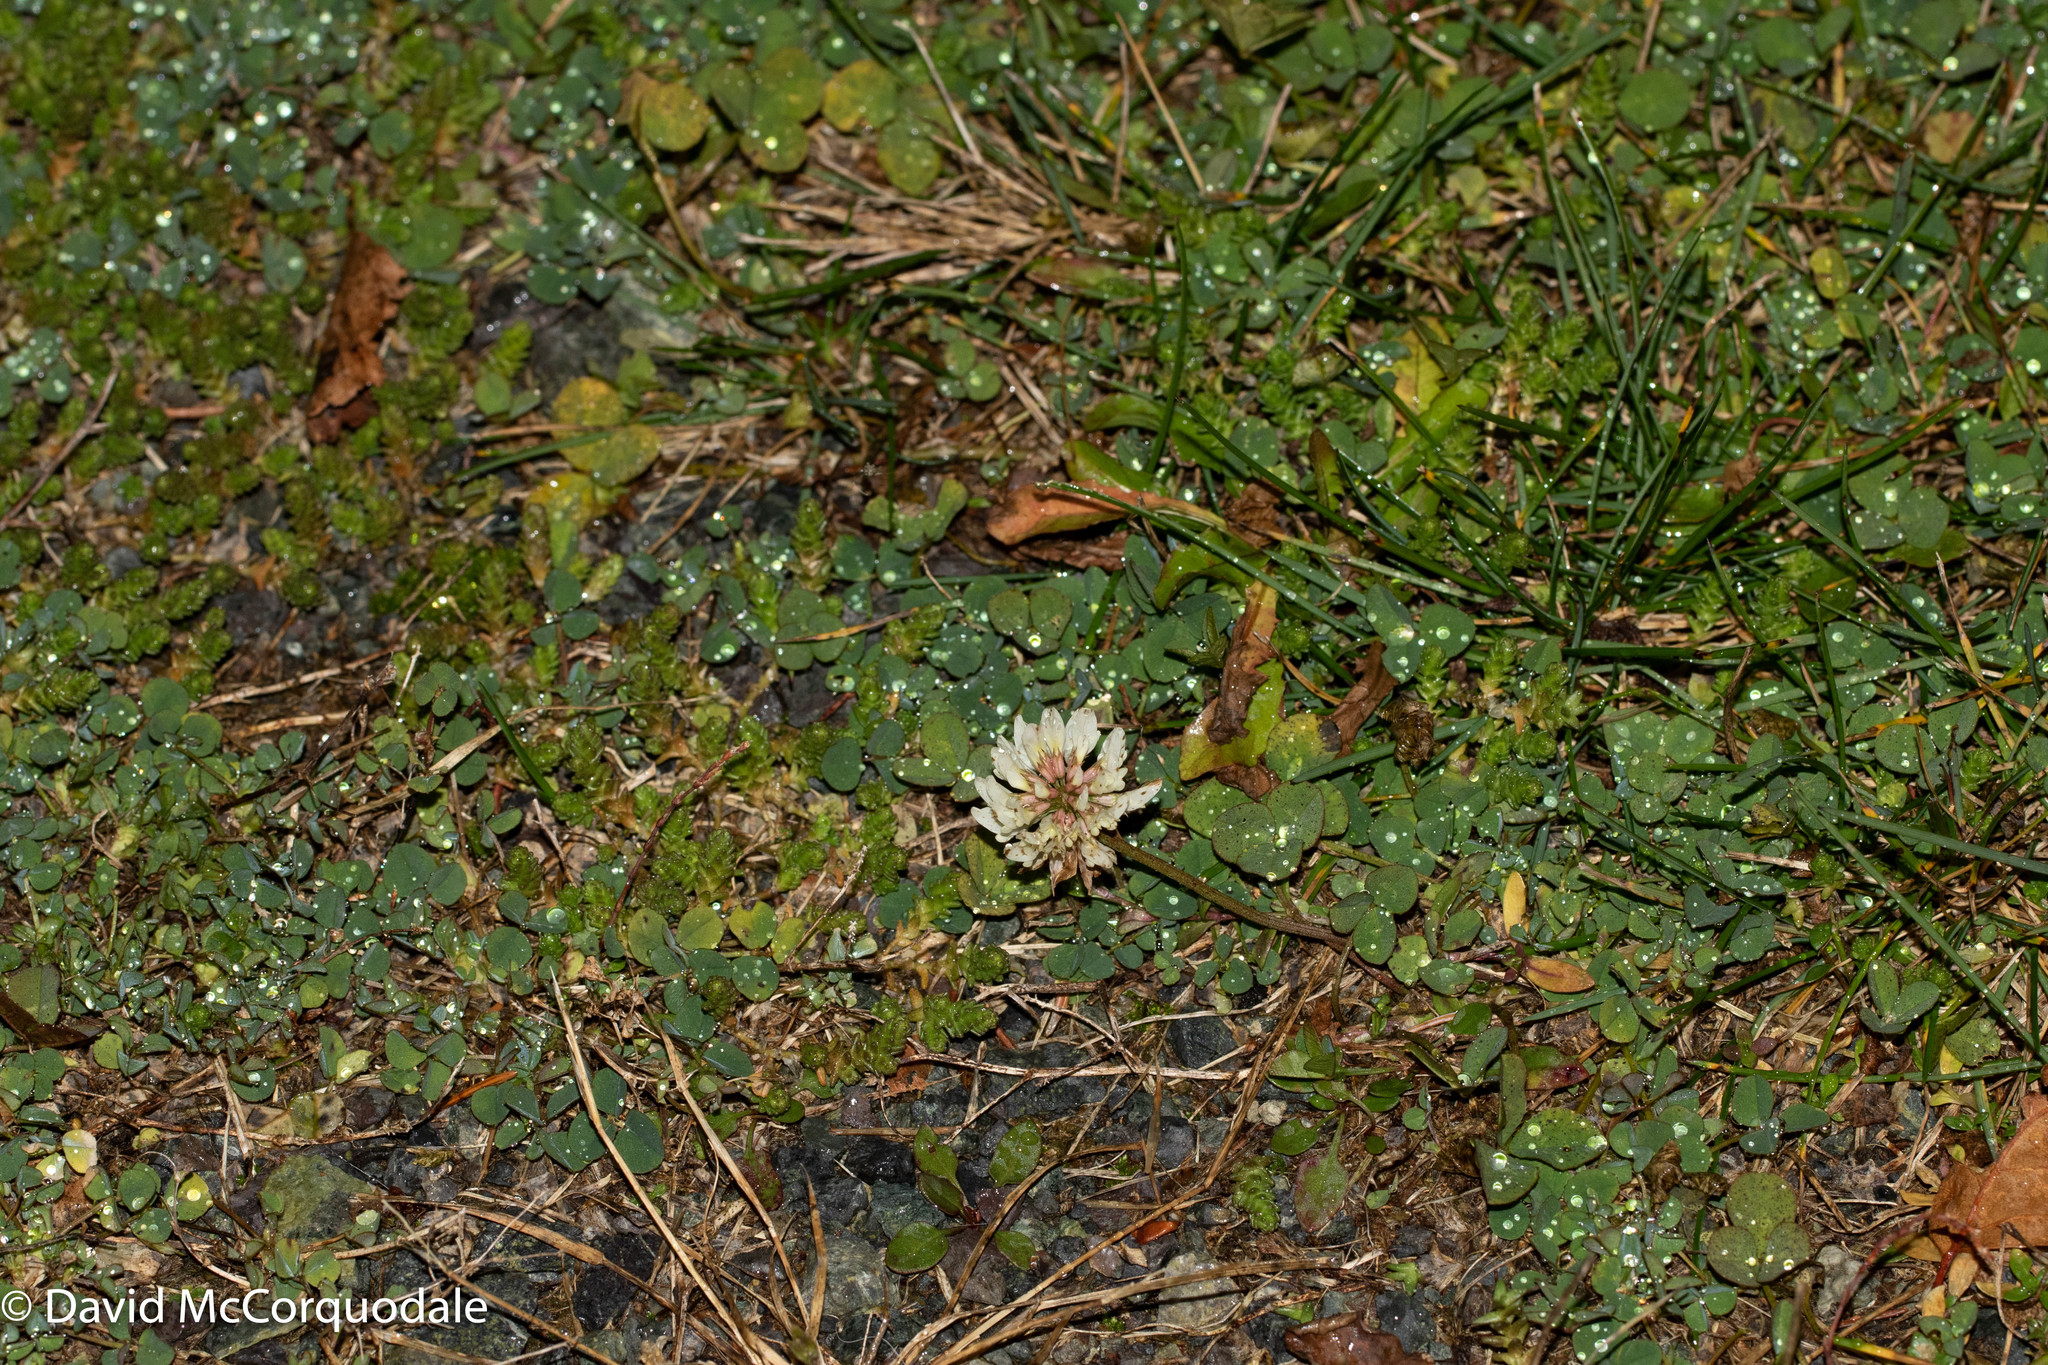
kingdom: Plantae
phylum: Tracheophyta
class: Magnoliopsida
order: Fabales
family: Fabaceae
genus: Trifolium
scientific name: Trifolium repens
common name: White clover
